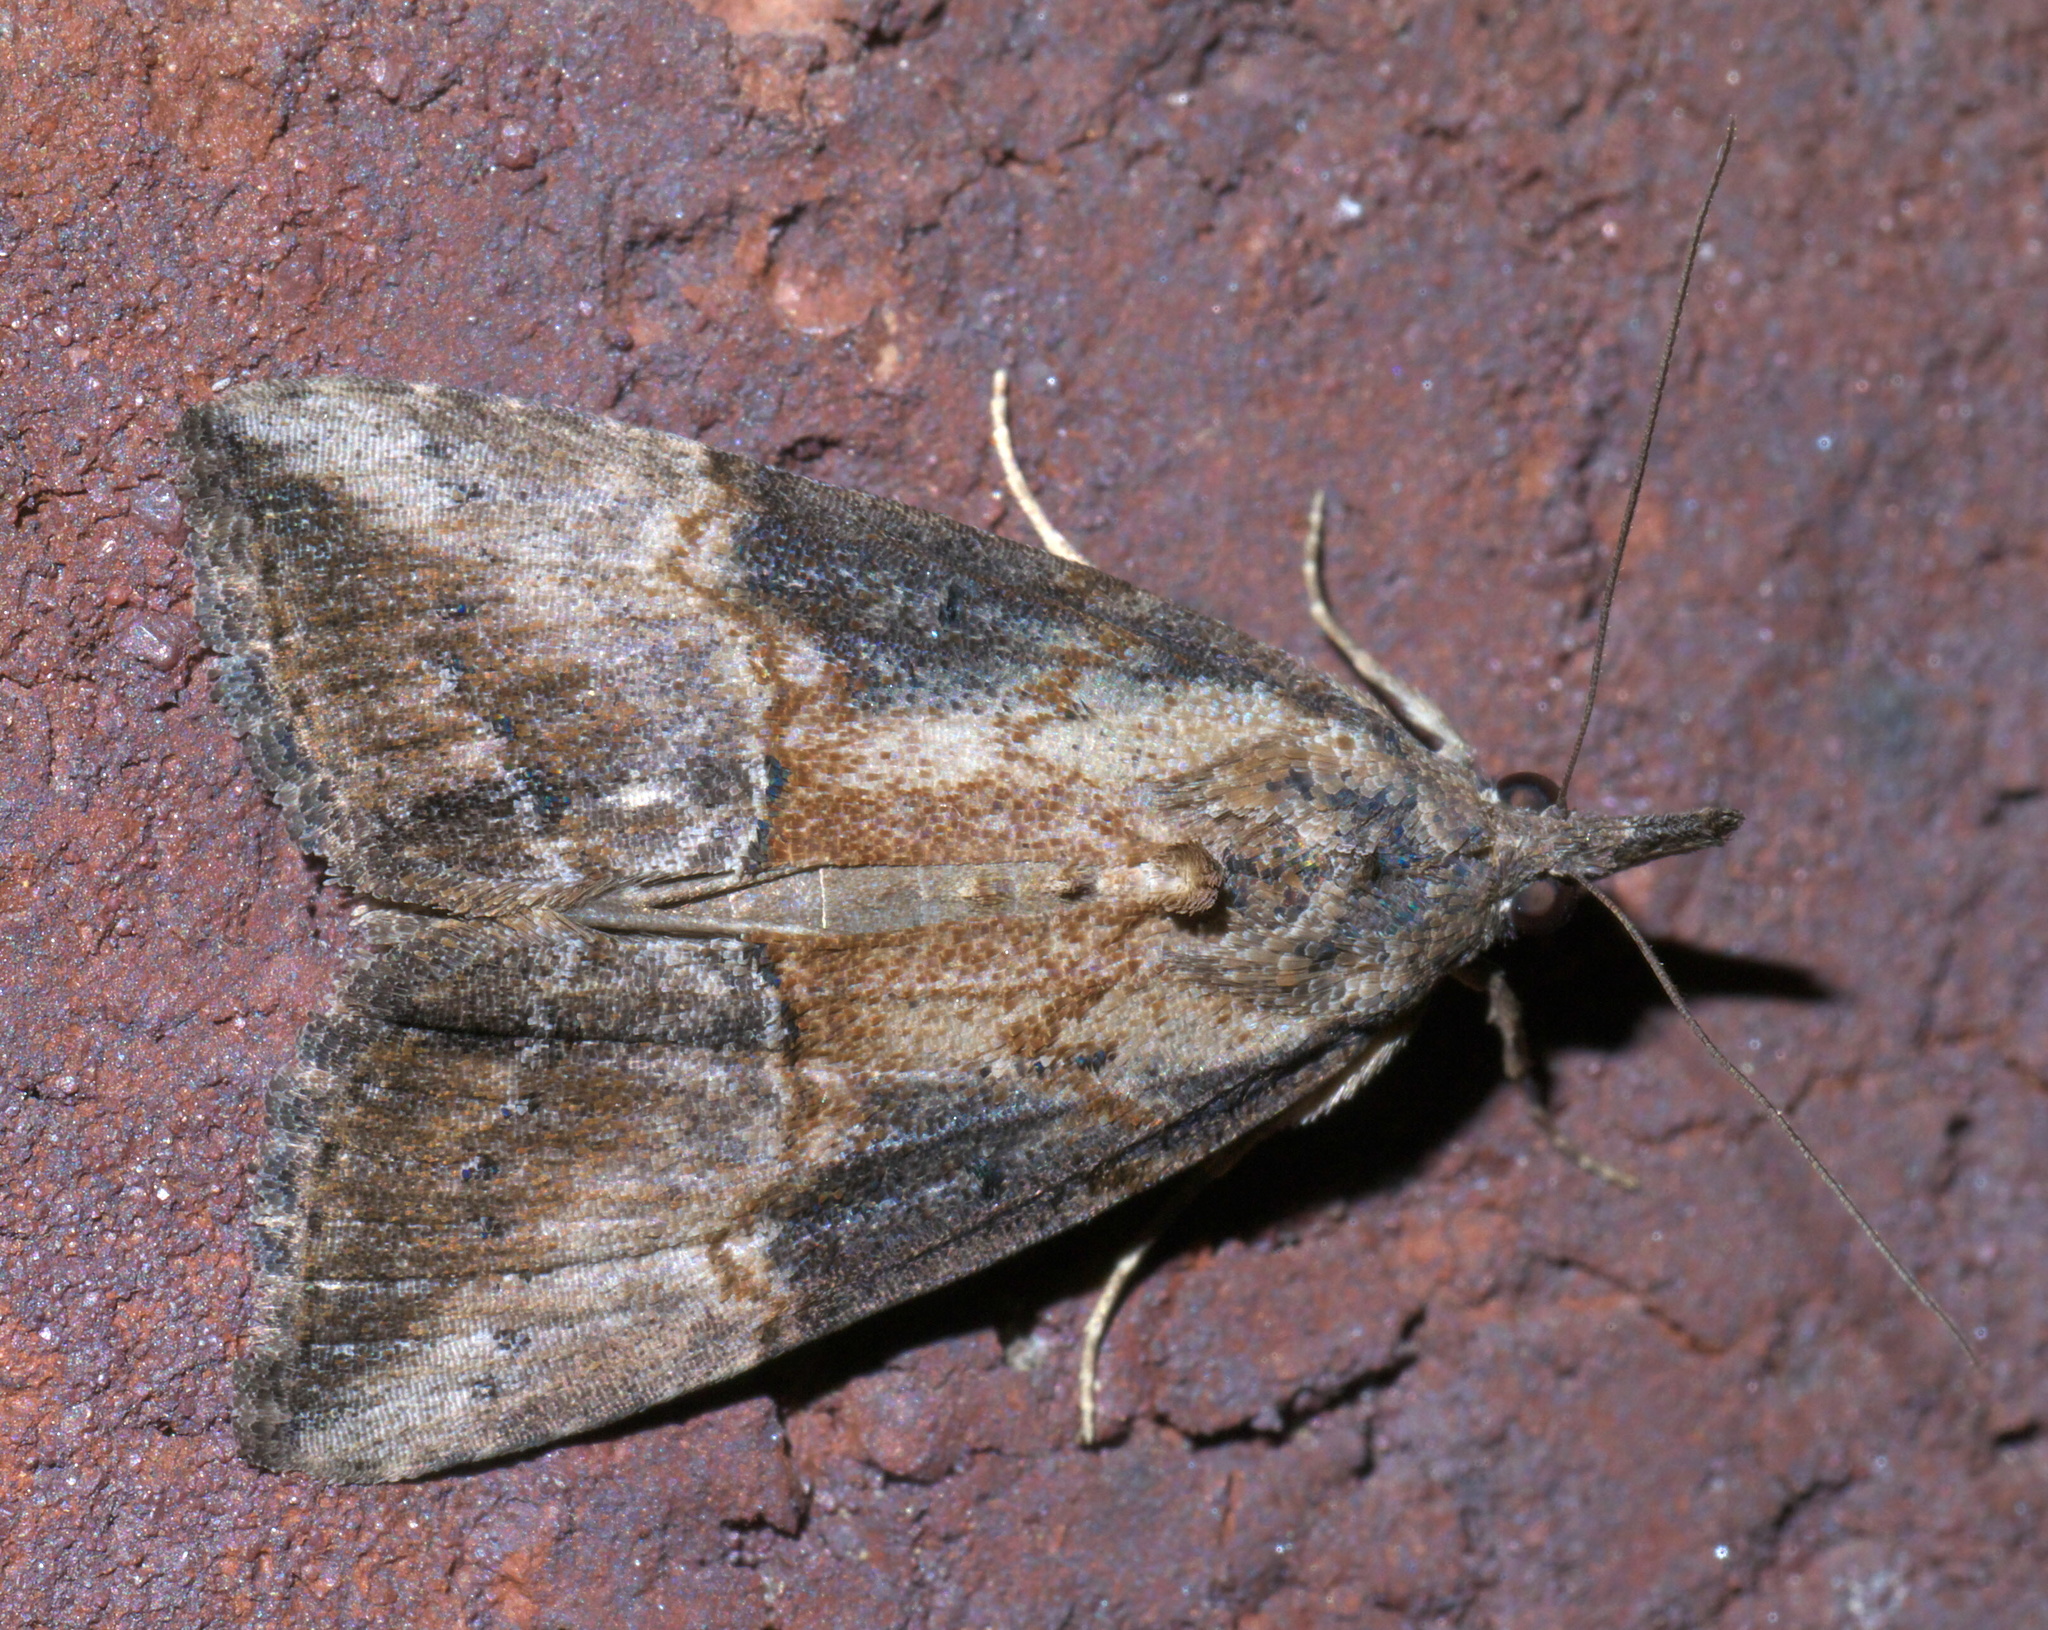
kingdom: Animalia
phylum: Arthropoda
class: Insecta
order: Lepidoptera
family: Erebidae
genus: Hypena
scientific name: Hypena scabra
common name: Green cloverworm
